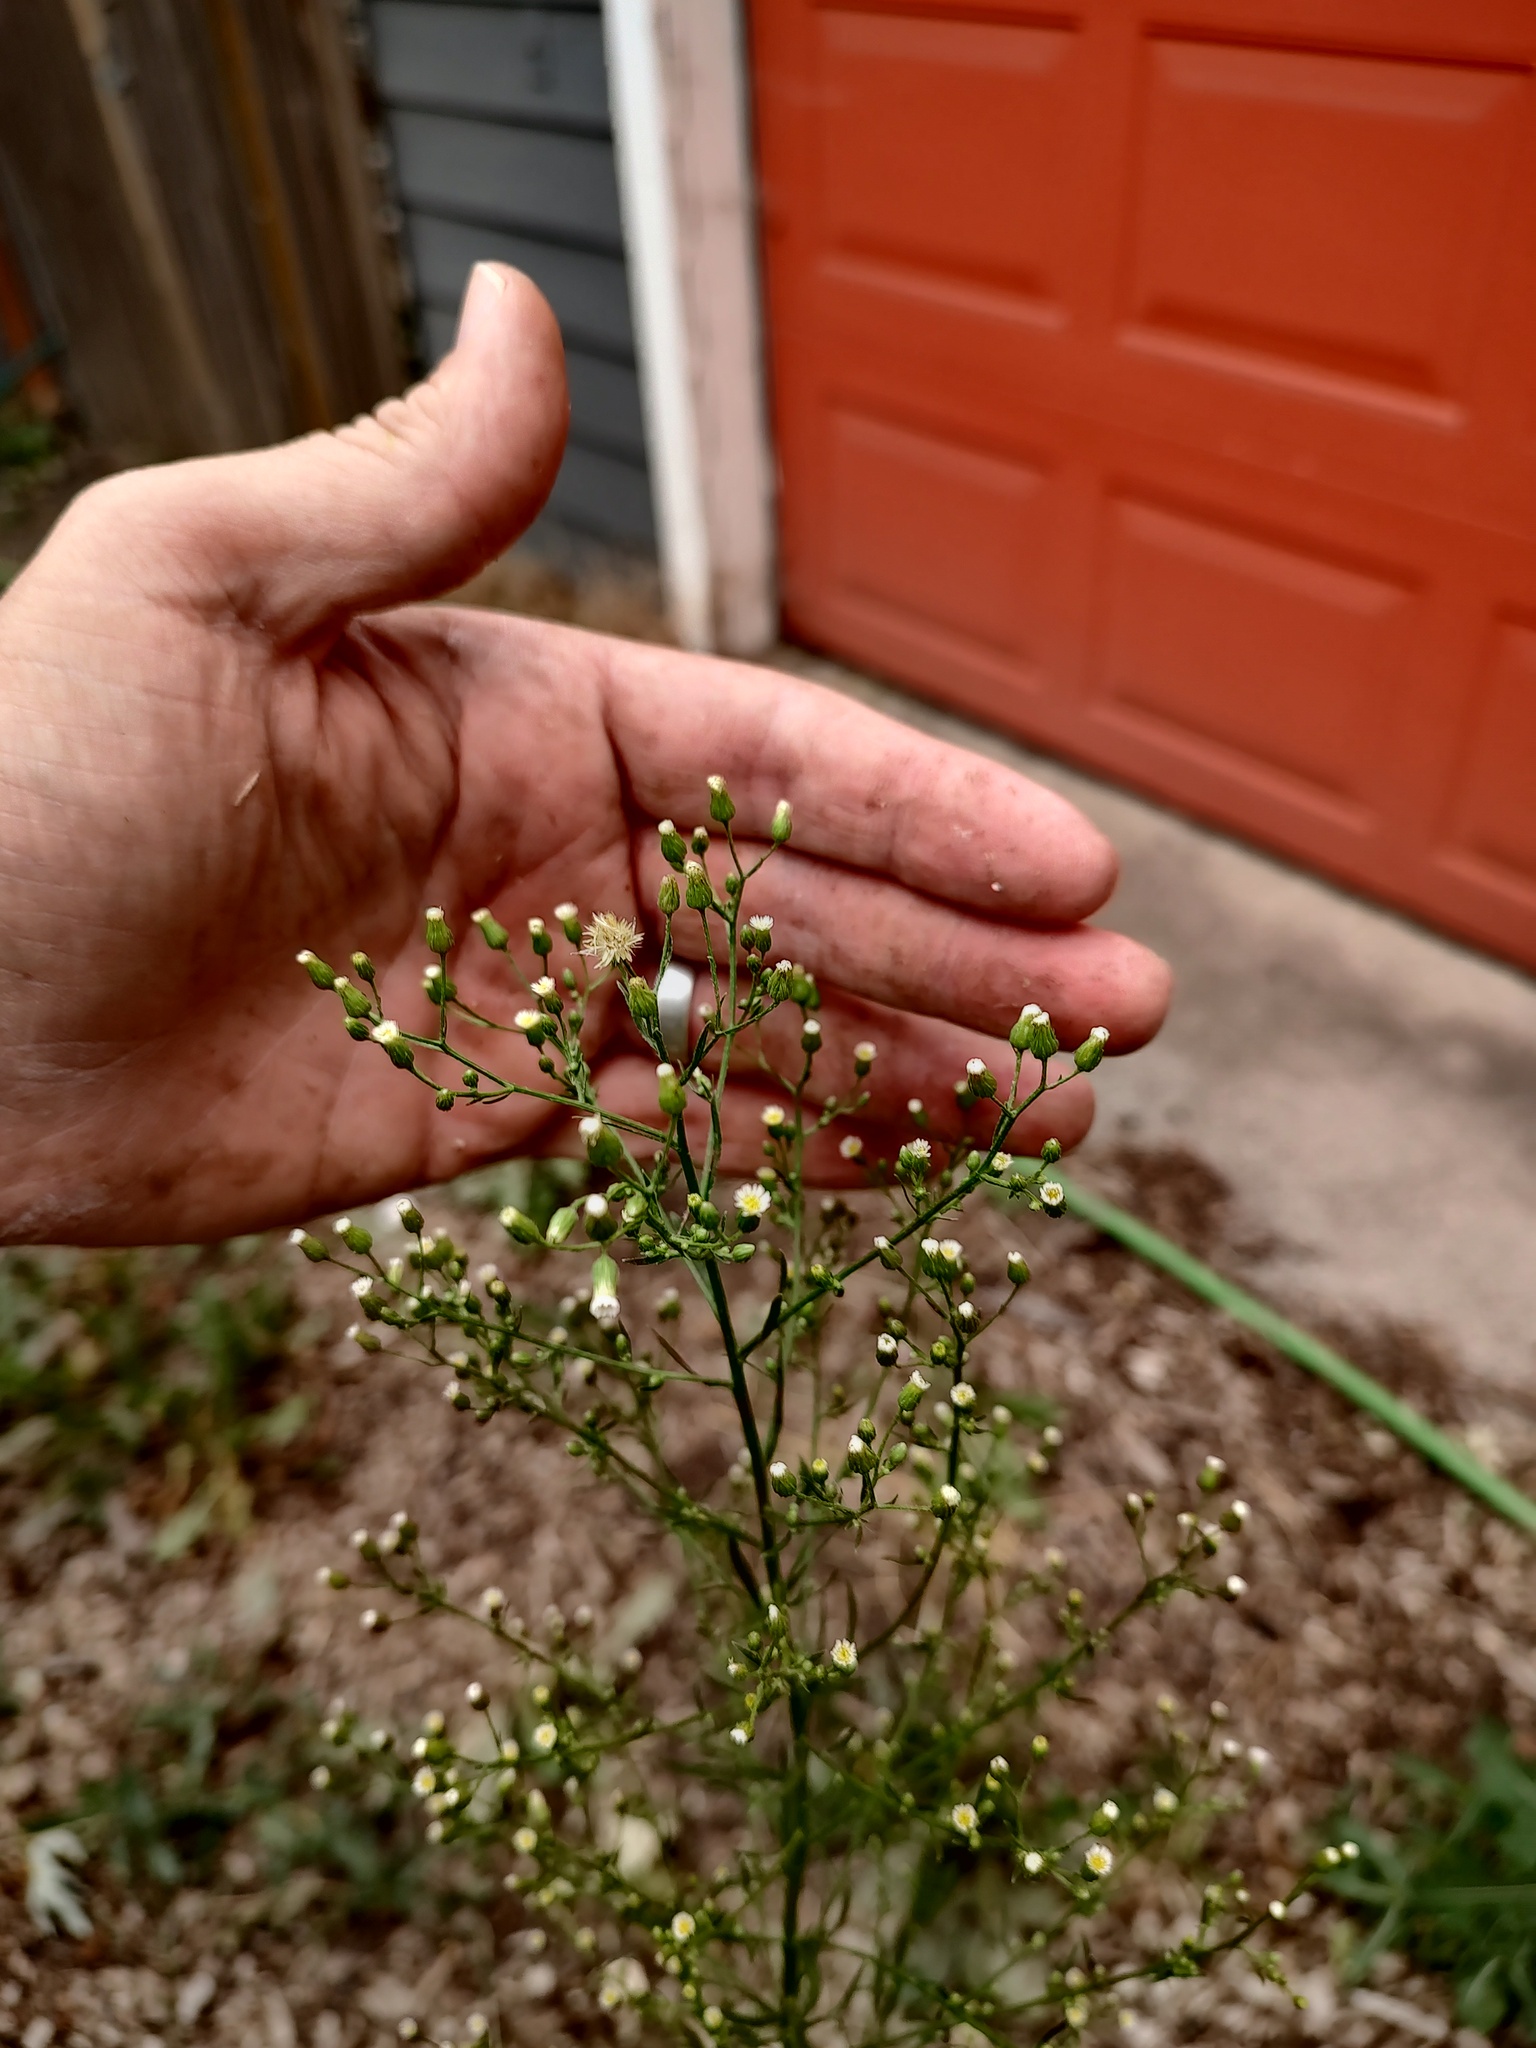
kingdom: Plantae
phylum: Tracheophyta
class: Magnoliopsida
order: Asterales
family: Asteraceae
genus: Erigeron
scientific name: Erigeron canadensis
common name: Canadian fleabane
